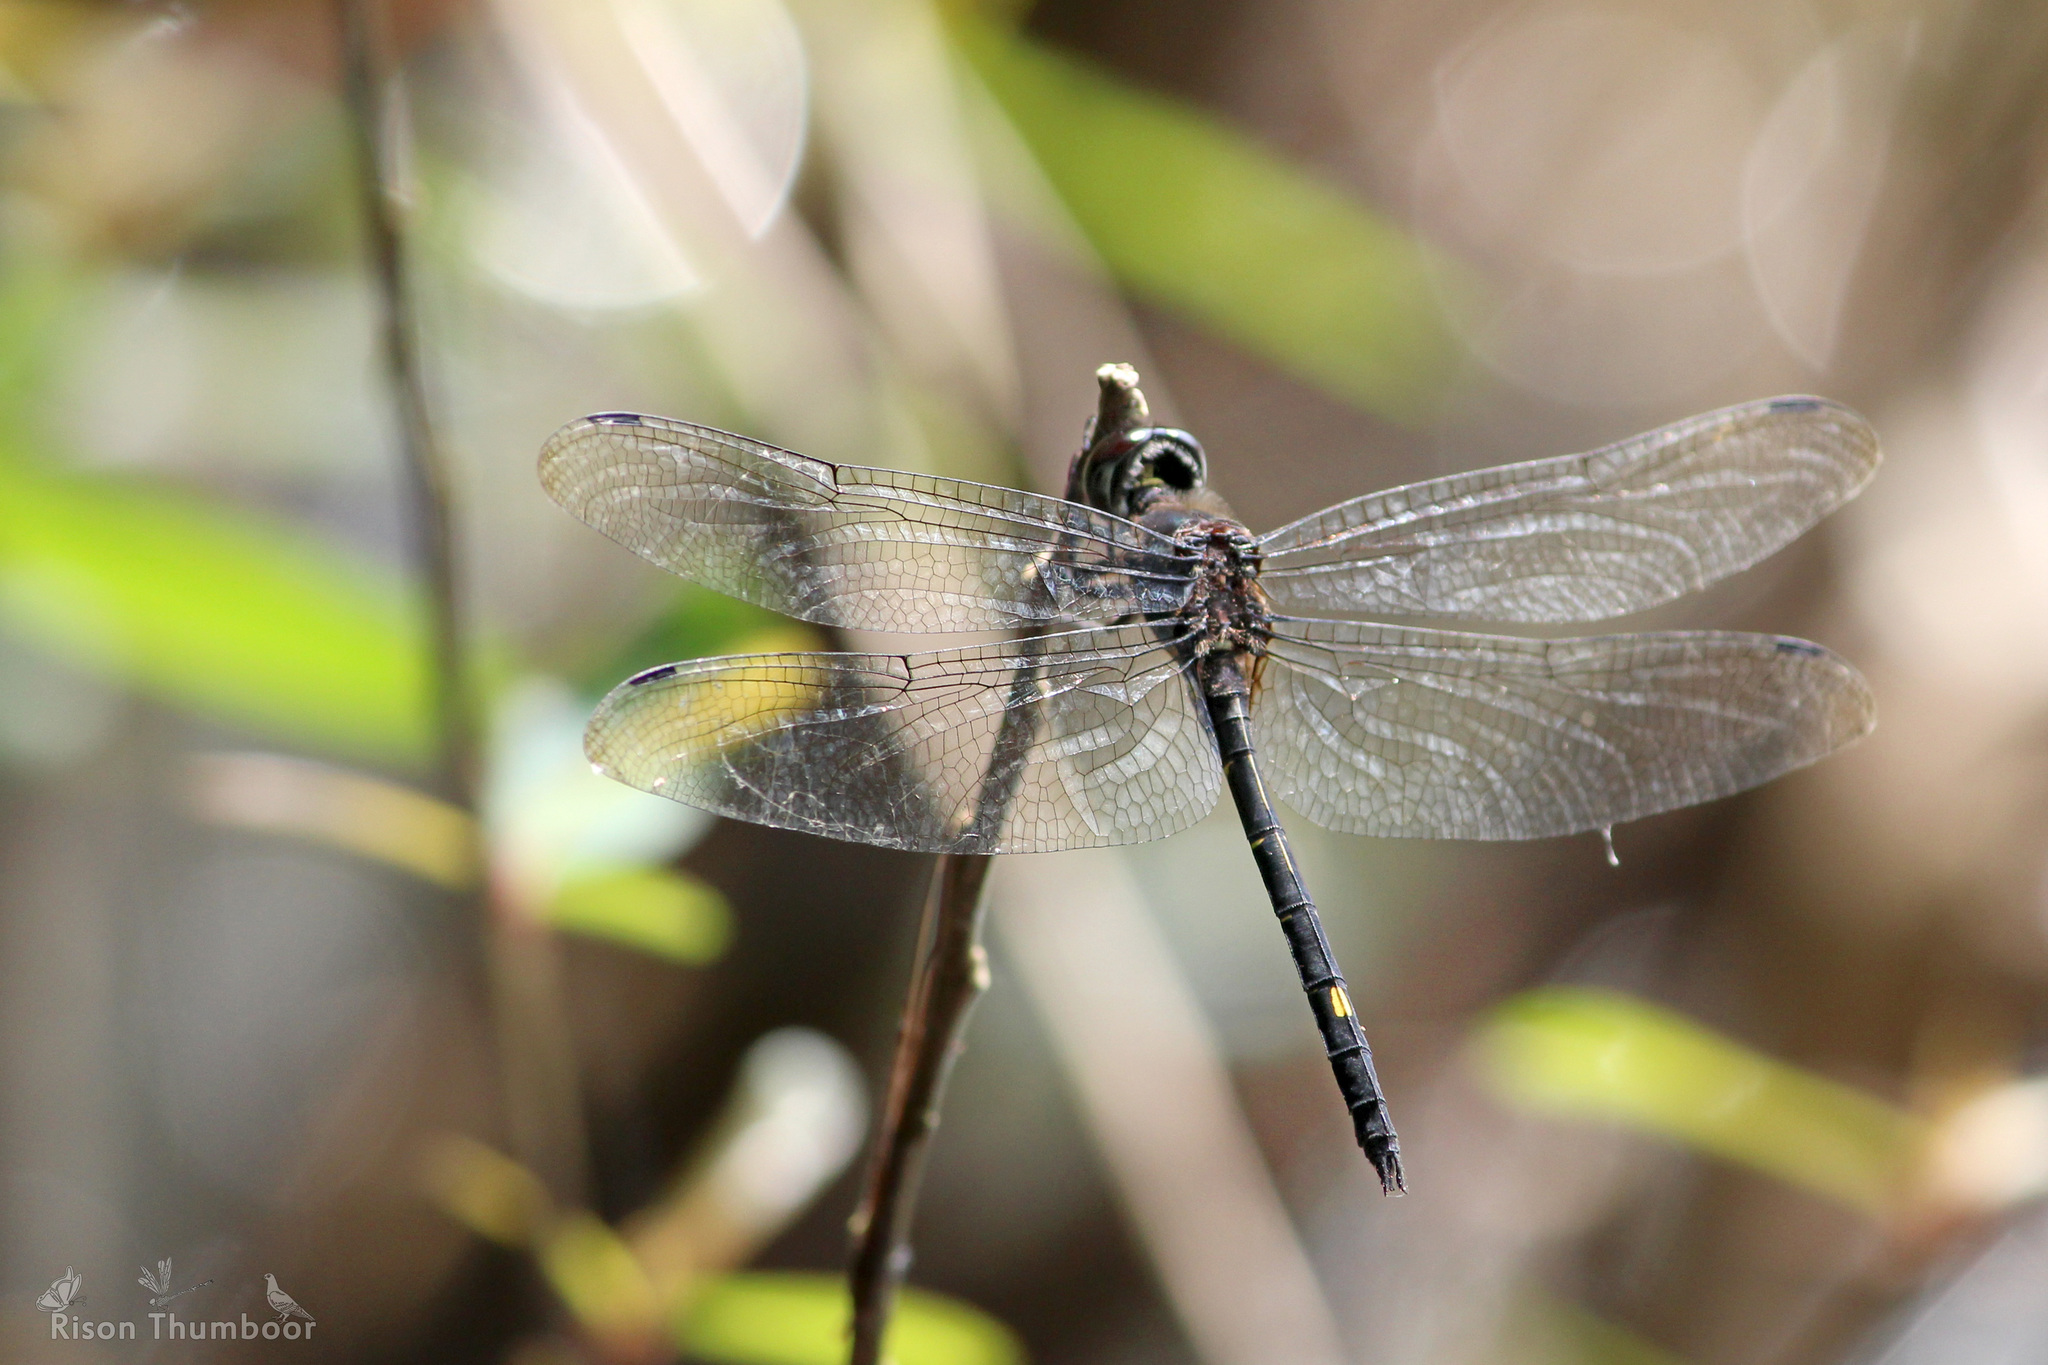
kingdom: Animalia
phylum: Arthropoda
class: Insecta
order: Odonata
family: Libellulidae
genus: Zygonyx
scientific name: Zygonyx iris
